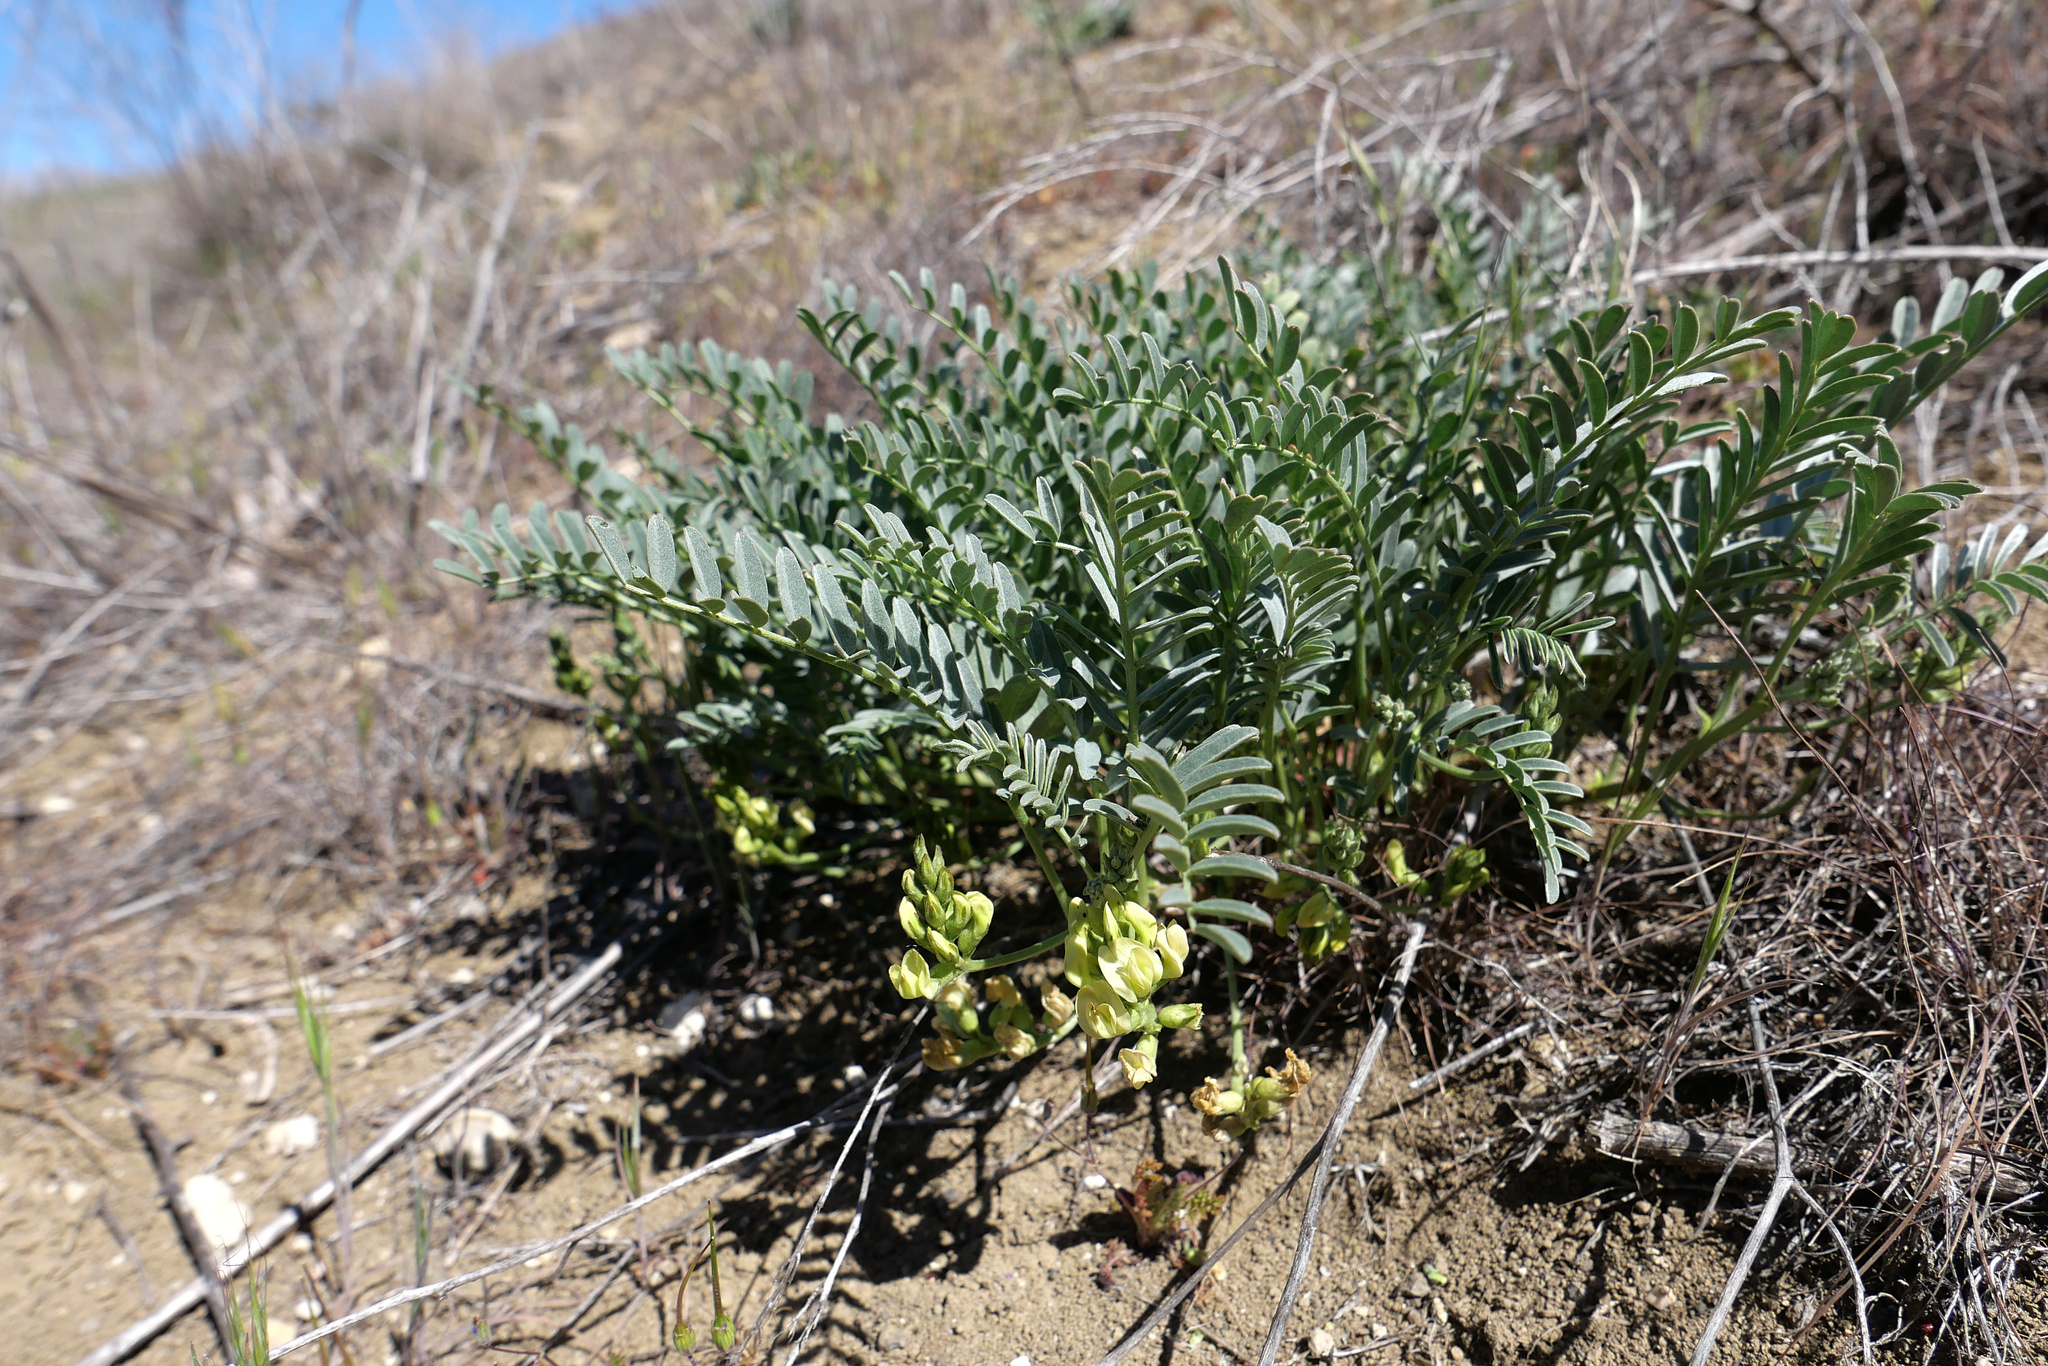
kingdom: Plantae
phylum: Tracheophyta
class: Magnoliopsida
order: Fabales
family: Fabaceae
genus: Astragalus
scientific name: Astragalus douglasii
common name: Jacumba milkvetch
